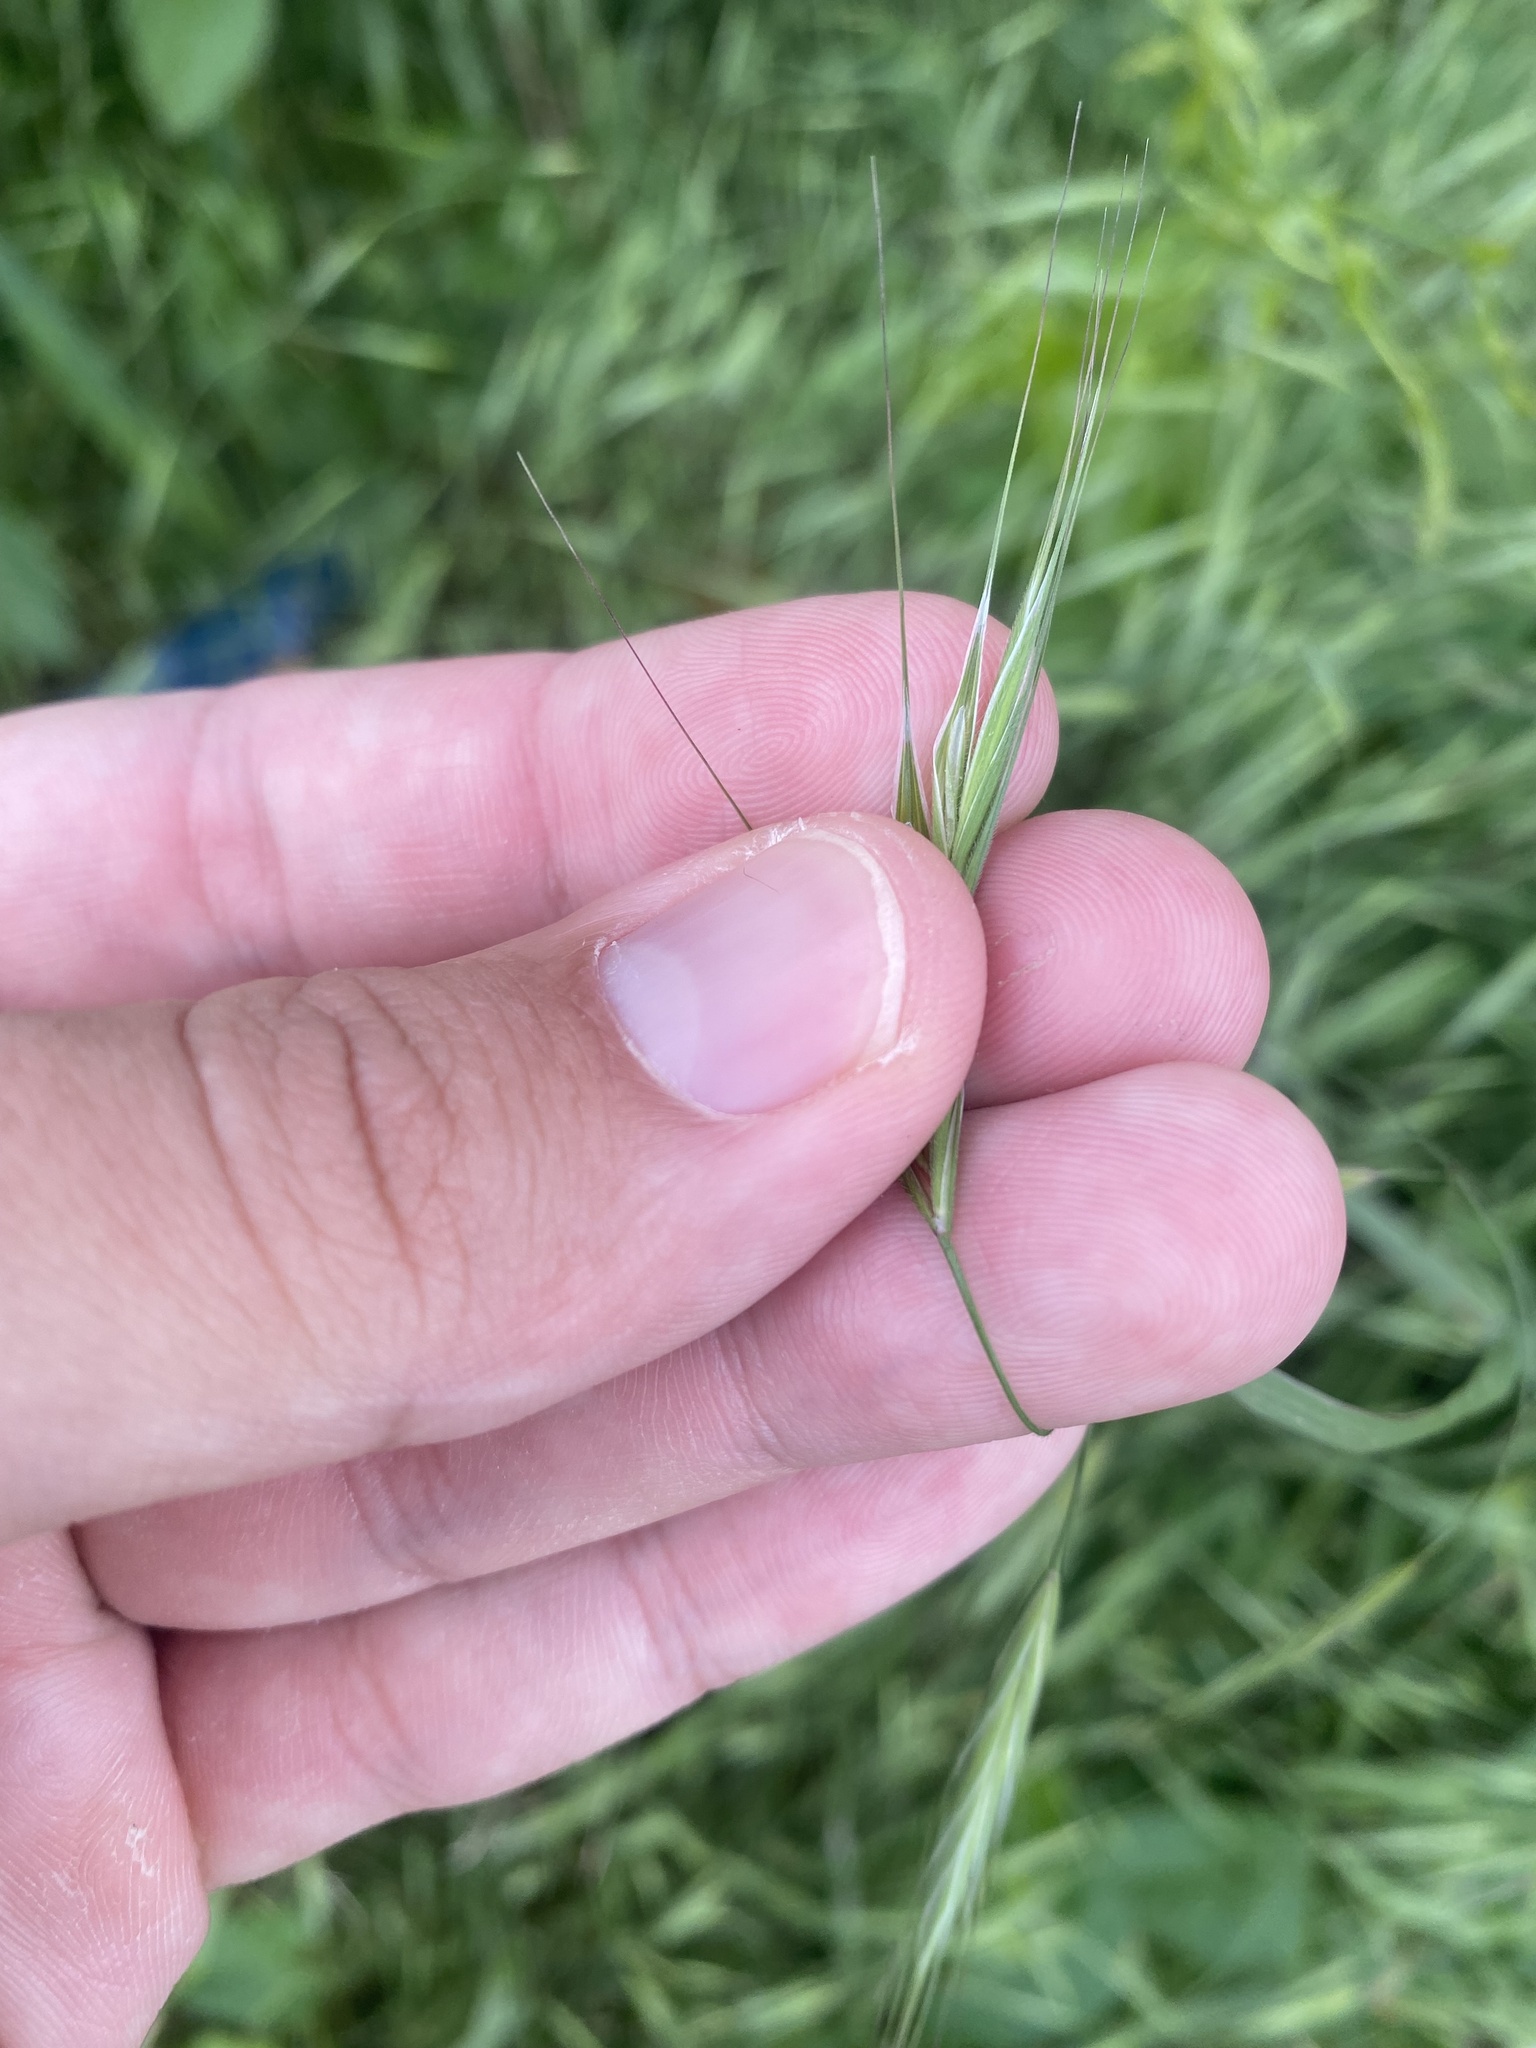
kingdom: Plantae
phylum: Tracheophyta
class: Liliopsida
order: Poales
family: Poaceae
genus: Bromus
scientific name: Bromus sterilis
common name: Poverty brome
